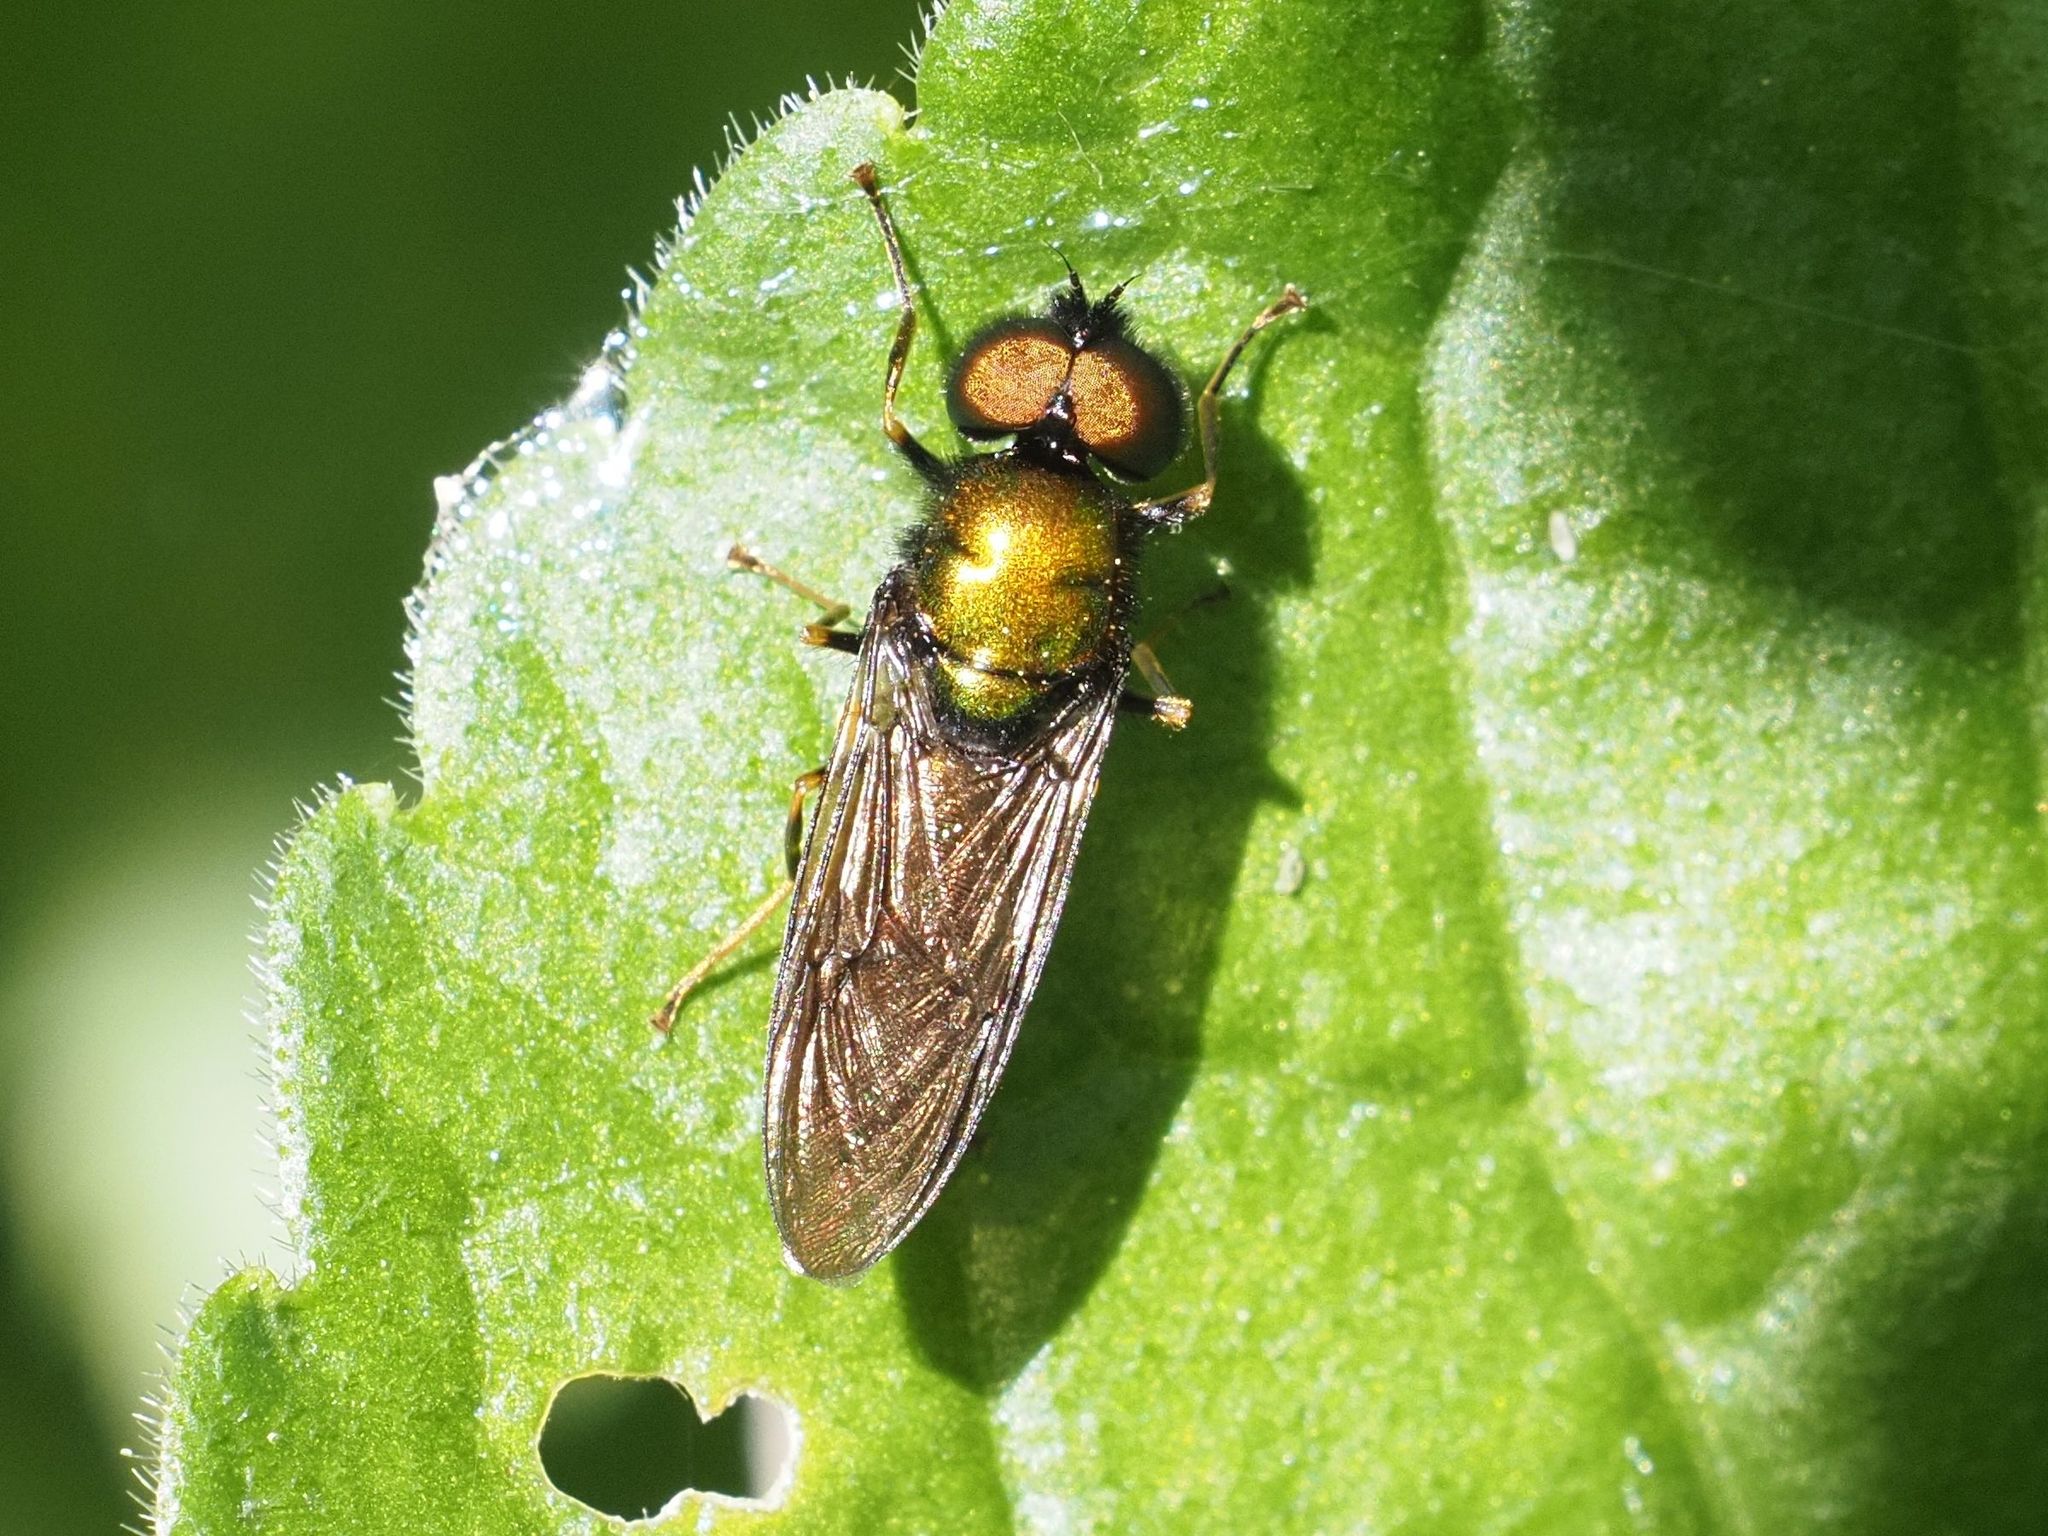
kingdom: Animalia
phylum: Arthropoda
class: Insecta
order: Diptera
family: Stratiomyidae
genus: Chloromyia
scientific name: Chloromyia speciosa
